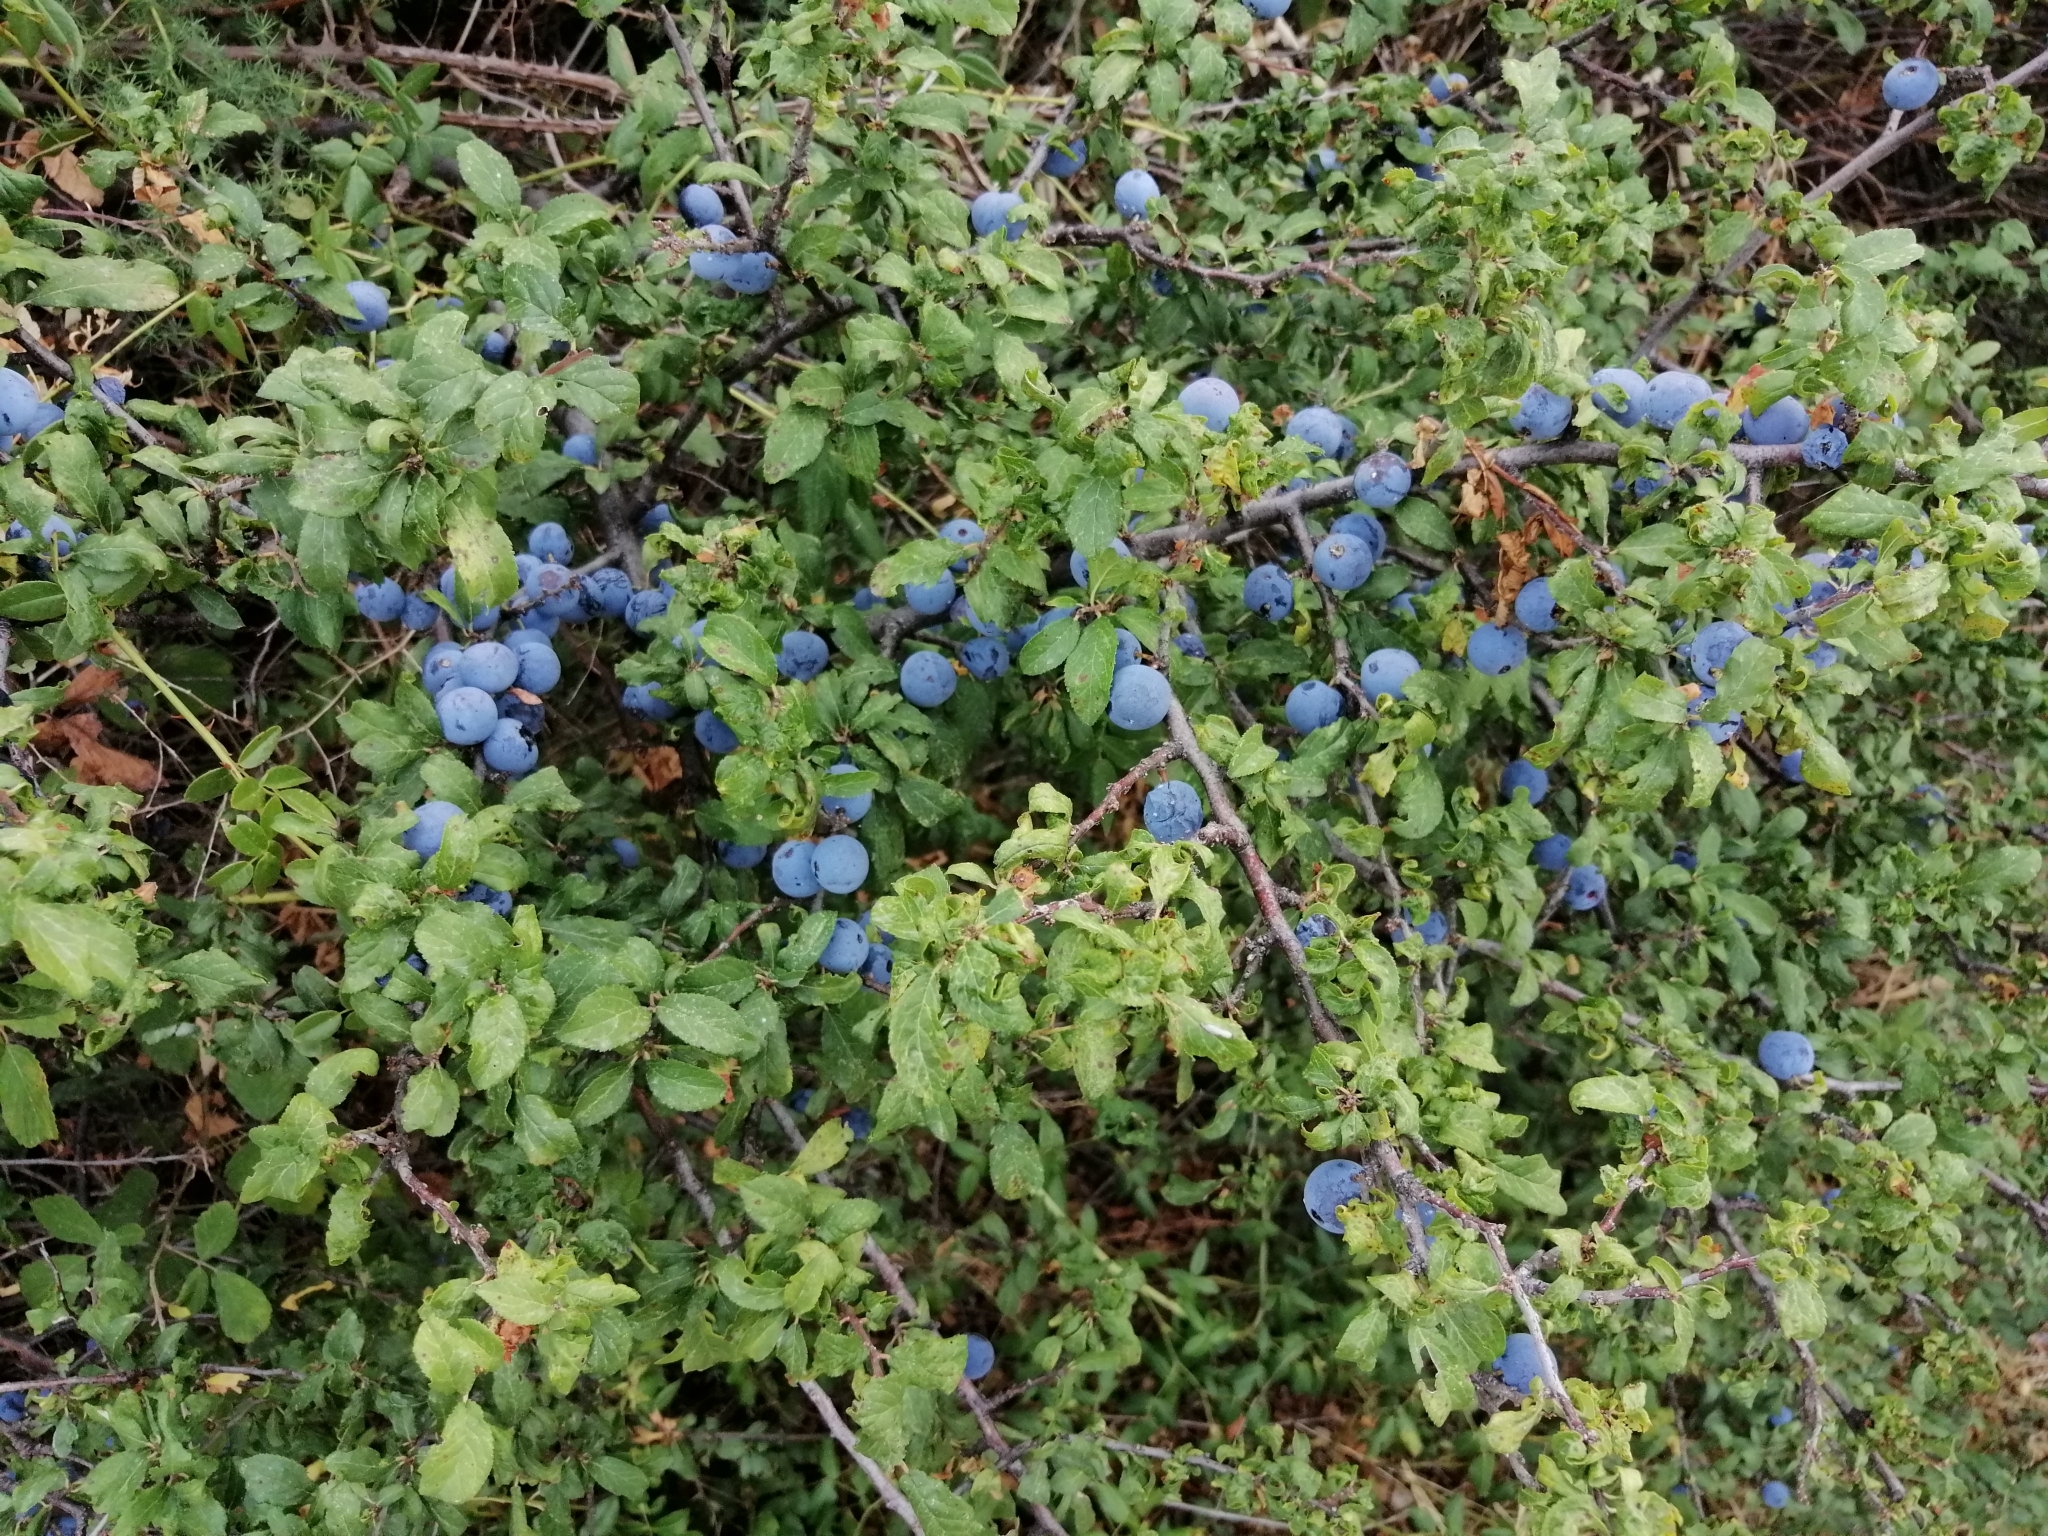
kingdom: Plantae
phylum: Tracheophyta
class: Magnoliopsida
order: Rosales
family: Rosaceae
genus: Prunus
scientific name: Prunus spinosa
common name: Blackthorn
